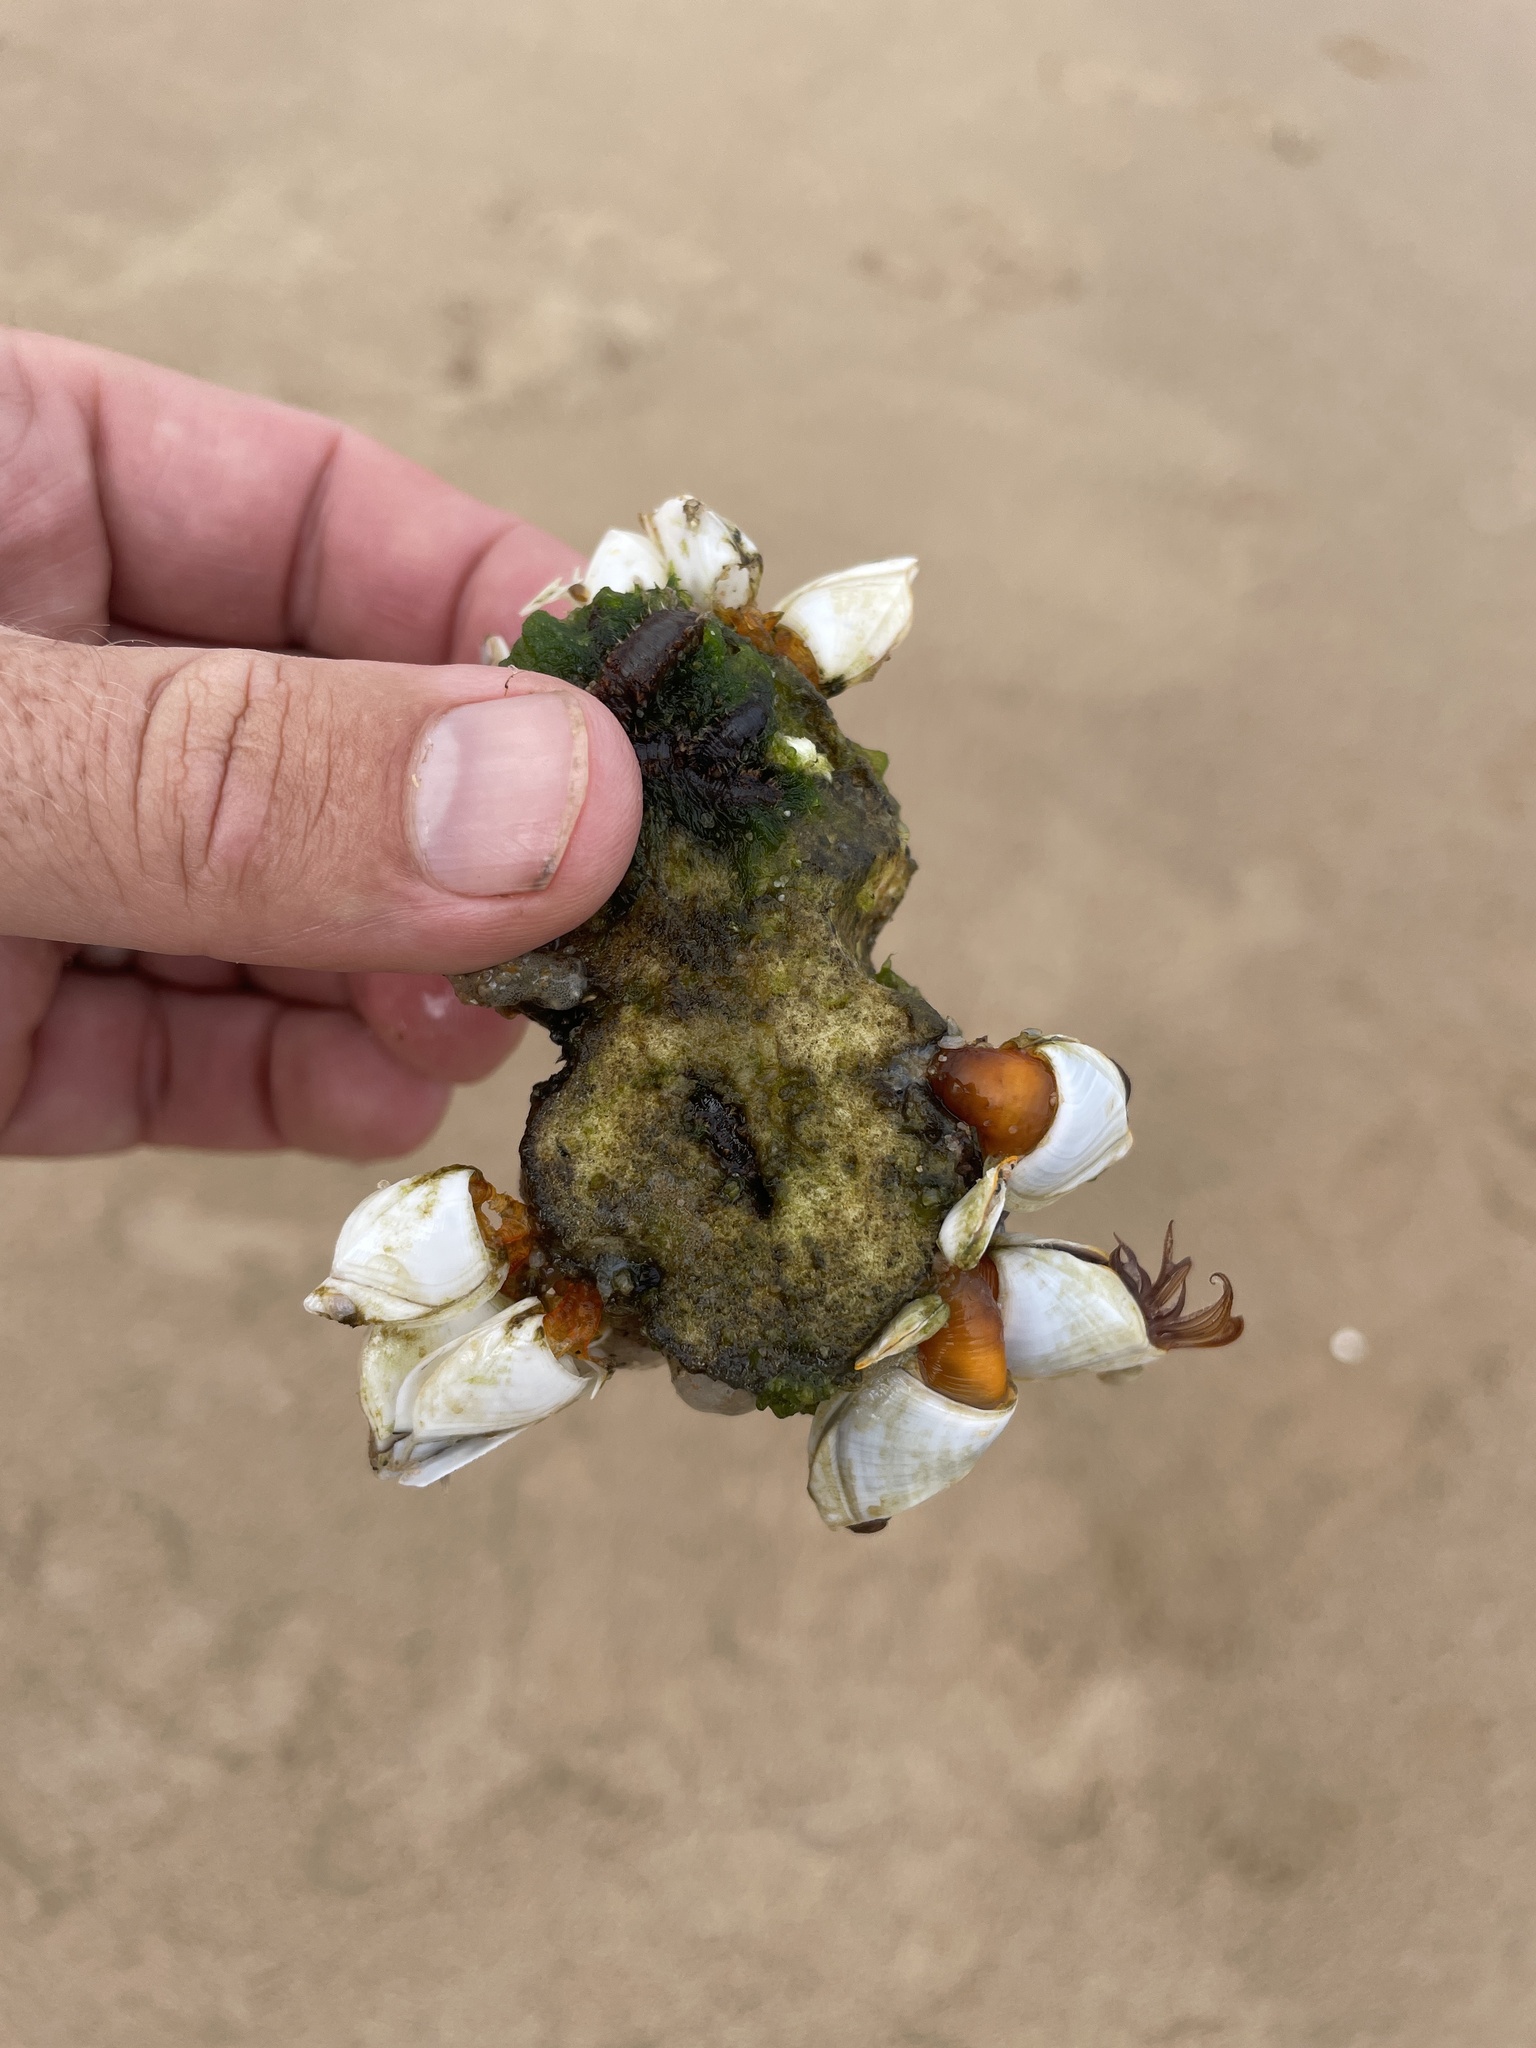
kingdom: Animalia
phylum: Arthropoda
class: Maxillopoda
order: Pedunculata
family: Lepadidae
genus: Lepas
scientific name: Lepas anserifera
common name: Goose barnacle
